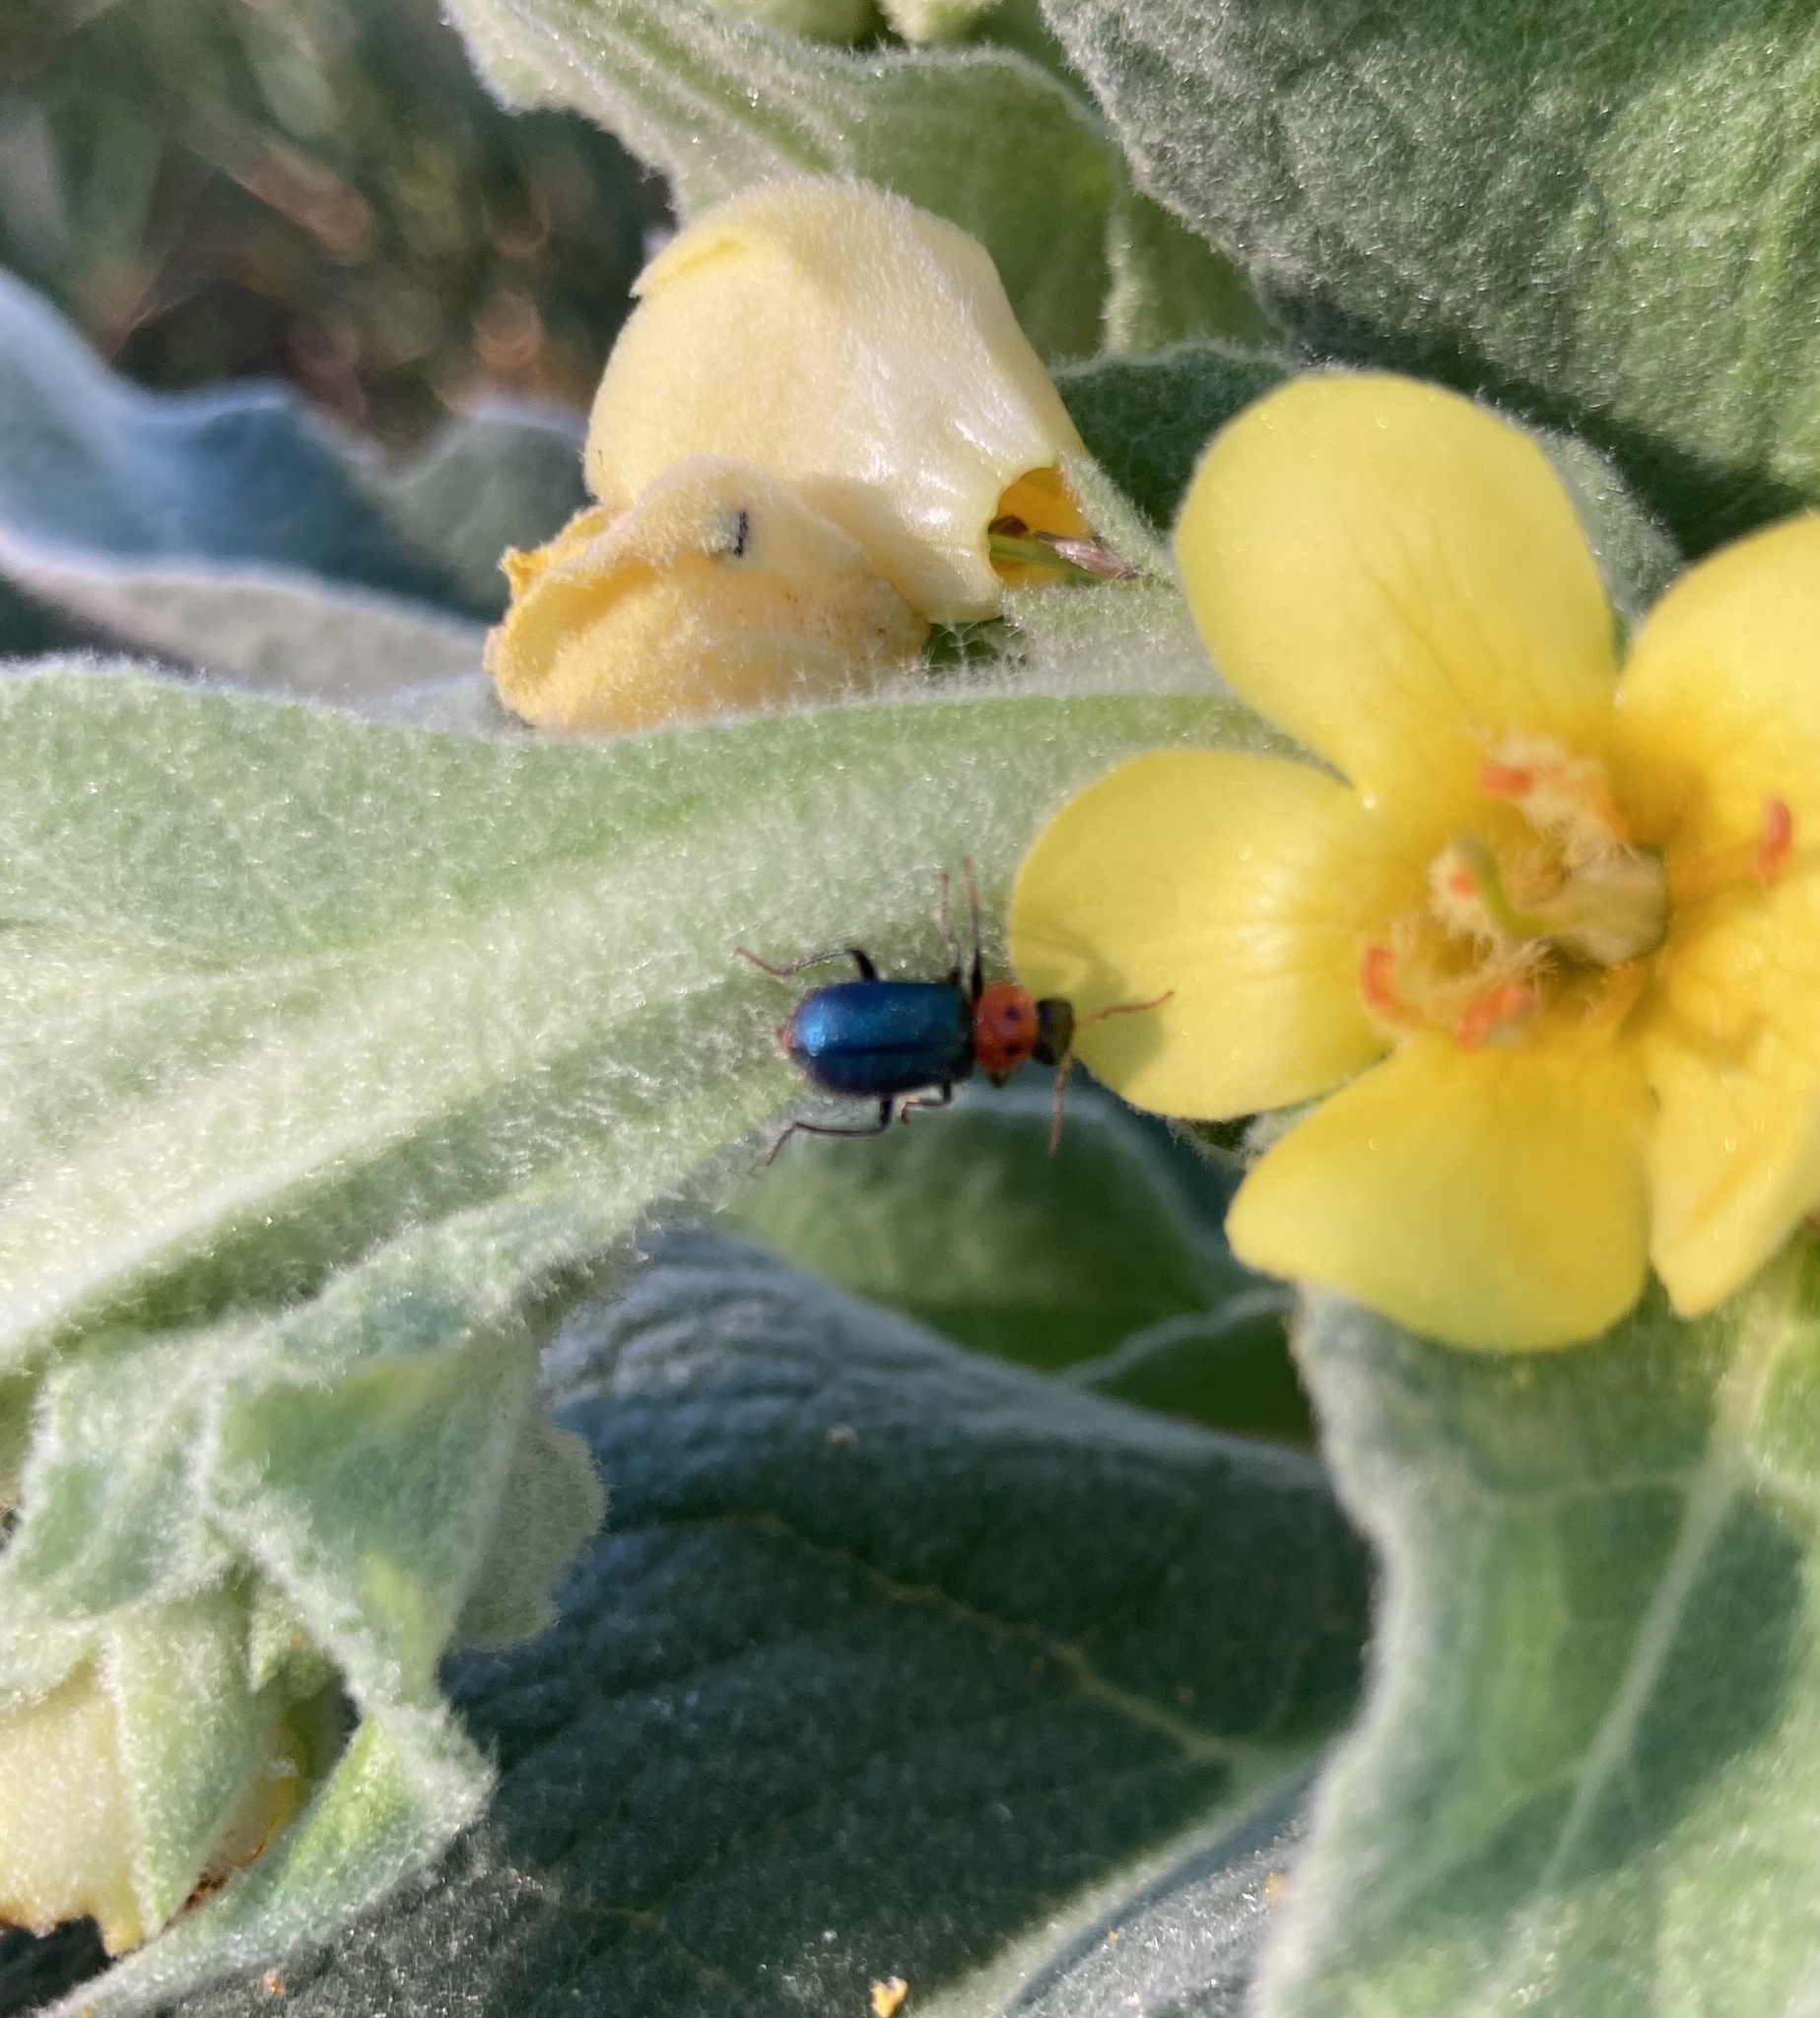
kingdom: Animalia
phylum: Arthropoda
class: Insecta
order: Coleoptera
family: Melyridae
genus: Collops
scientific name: Collops bipunctatus
